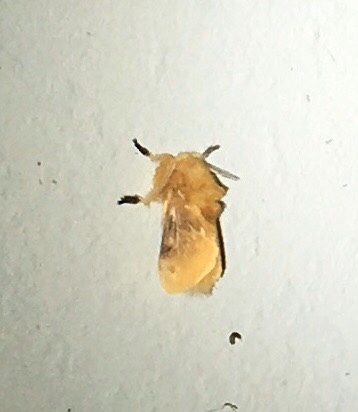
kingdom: Animalia
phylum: Arthropoda
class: Insecta
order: Lepidoptera
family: Megalopygidae
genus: Megalopyge
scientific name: Megalopyge opercularis
